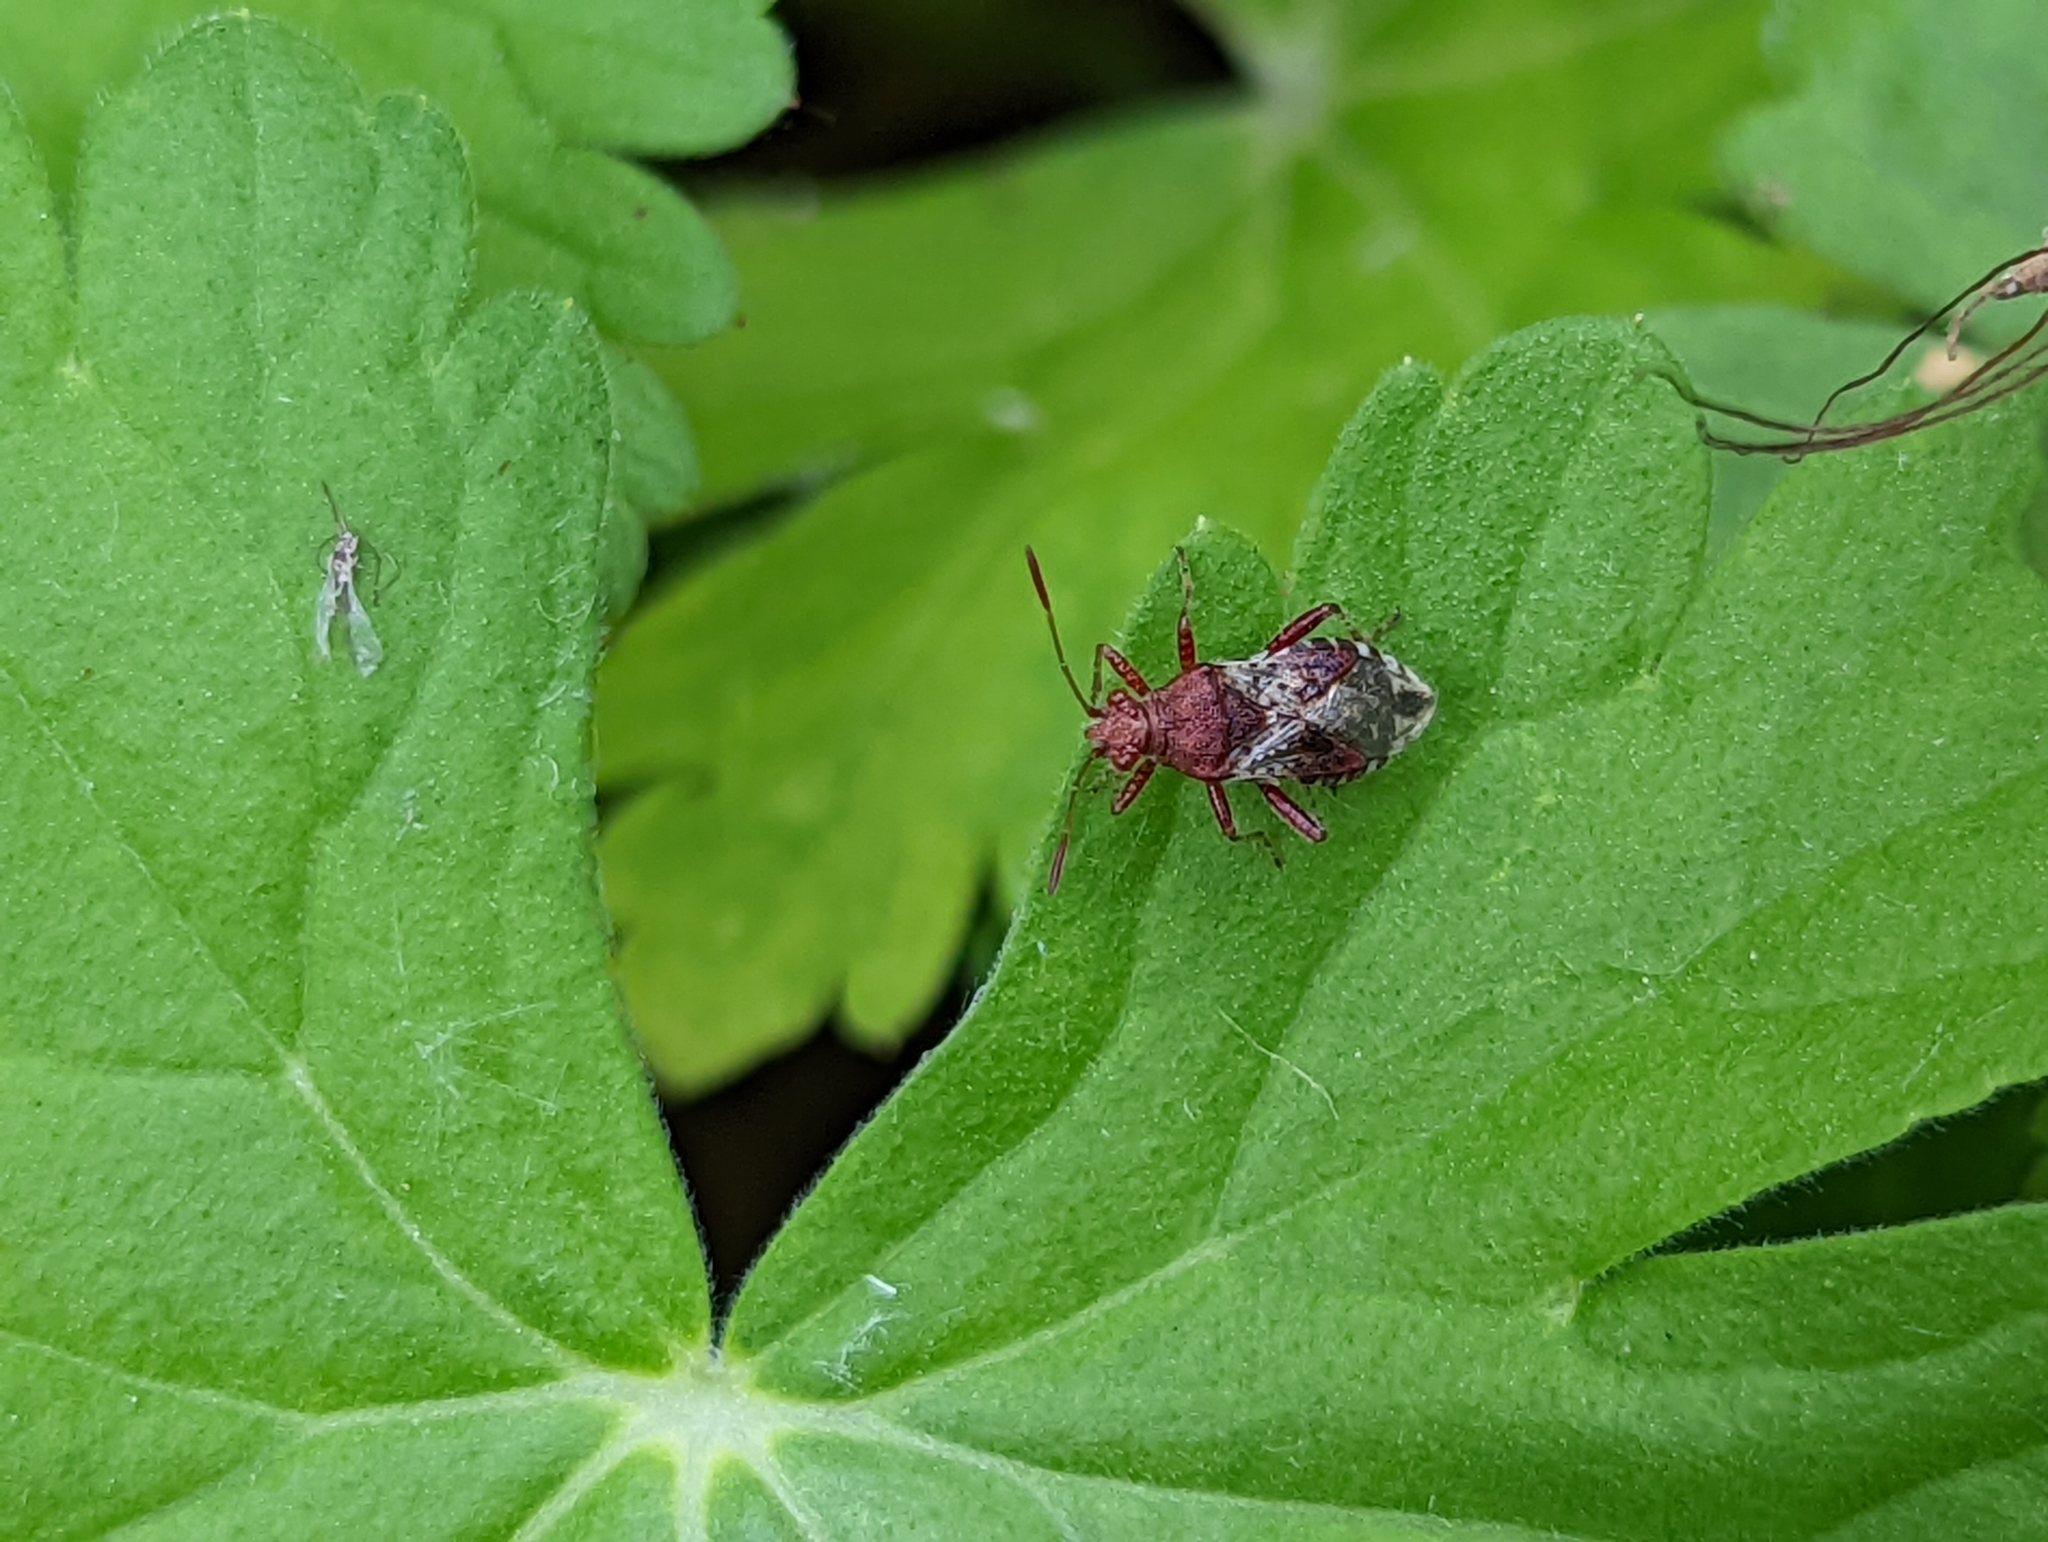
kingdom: Animalia
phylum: Arthropoda
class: Insecta
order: Hemiptera
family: Rhopalidae
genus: Rhopalus
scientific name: Rhopalus subrufus
